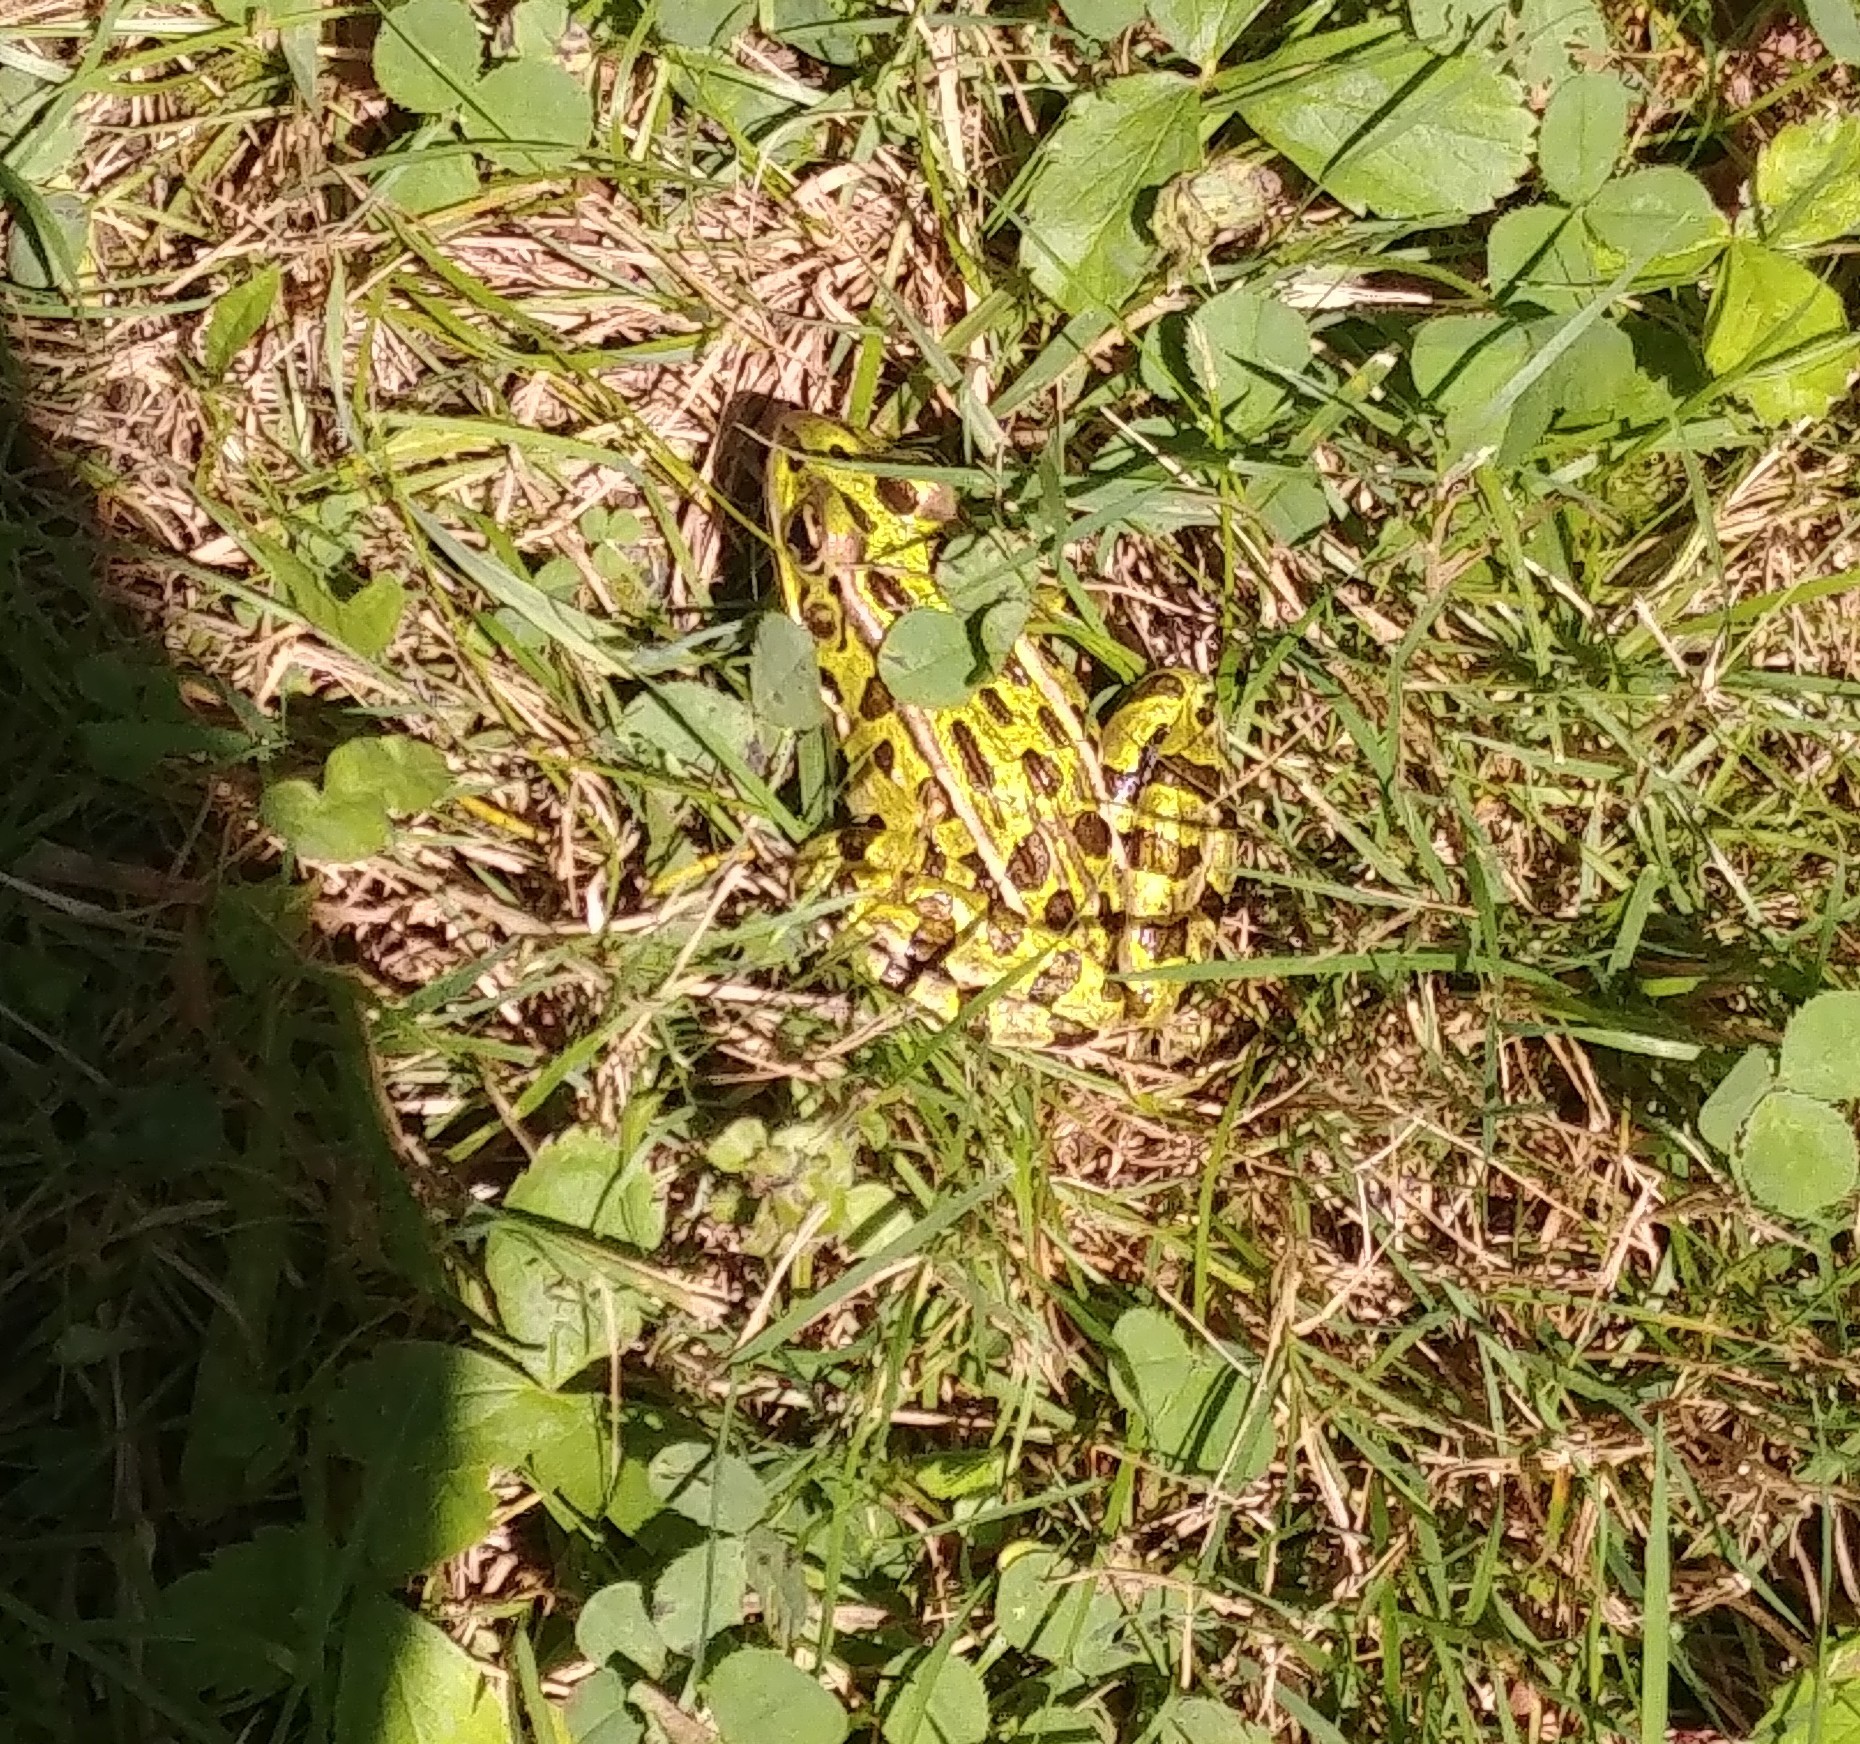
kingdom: Animalia
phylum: Chordata
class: Amphibia
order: Anura
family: Ranidae
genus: Lithobates
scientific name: Lithobates pipiens
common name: Northern leopard frog
